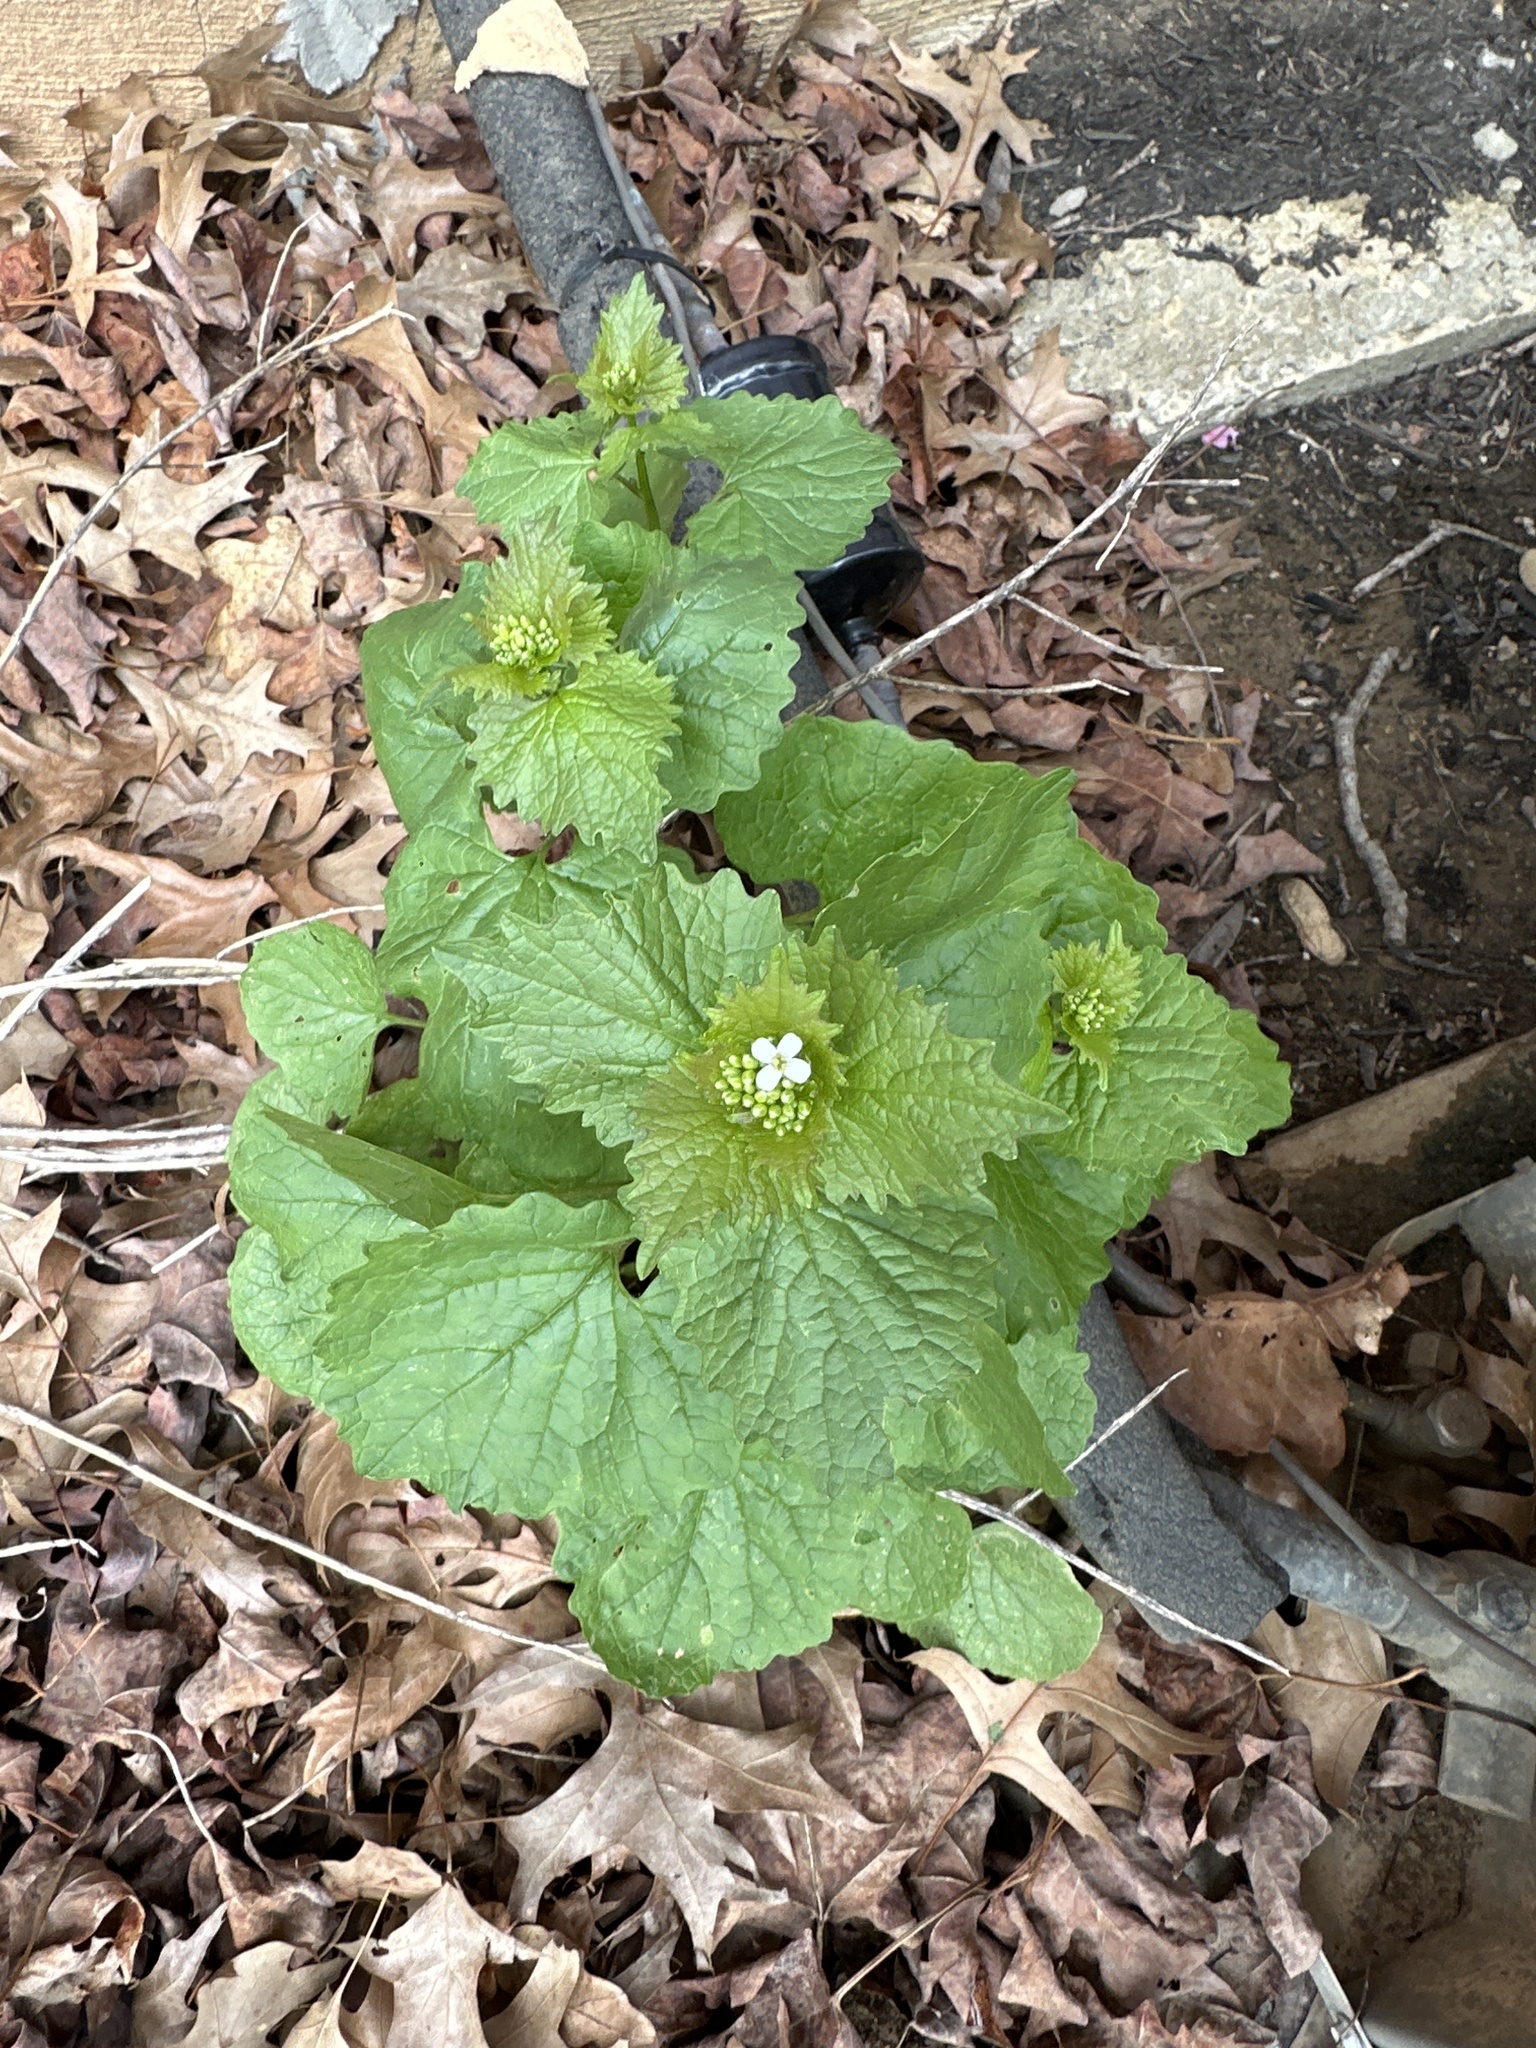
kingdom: Plantae
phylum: Tracheophyta
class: Magnoliopsida
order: Brassicales
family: Brassicaceae
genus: Alliaria
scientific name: Alliaria petiolata
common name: Garlic mustard
